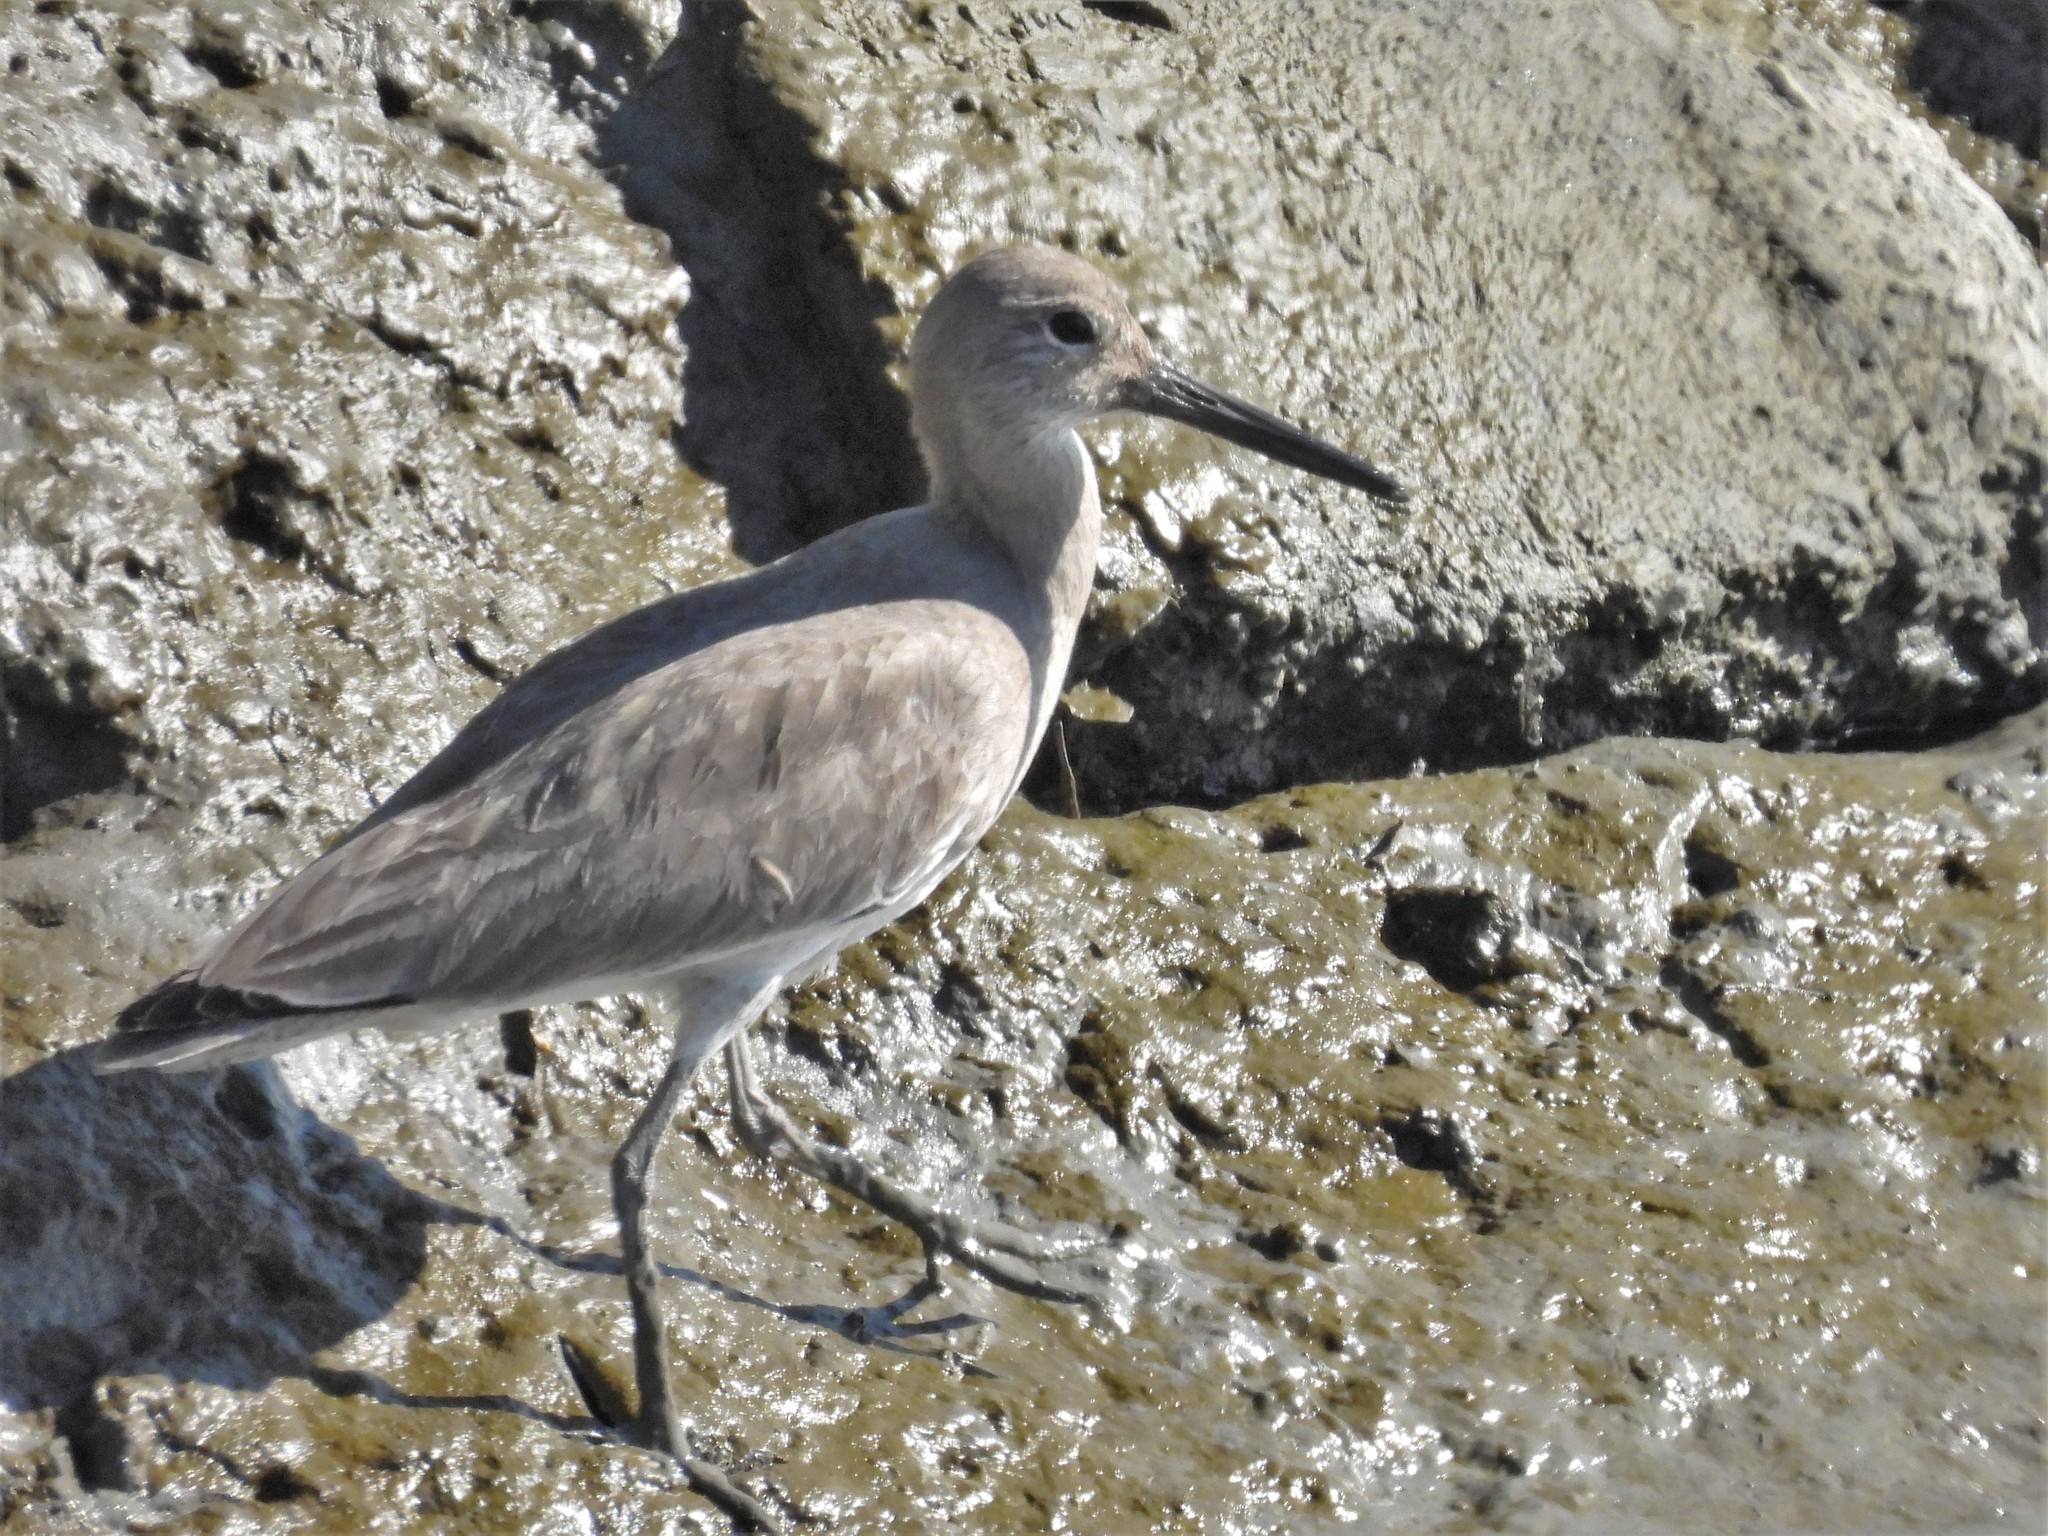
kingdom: Animalia
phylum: Chordata
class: Aves
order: Charadriiformes
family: Scolopacidae
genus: Tringa
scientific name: Tringa semipalmata
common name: Willet
